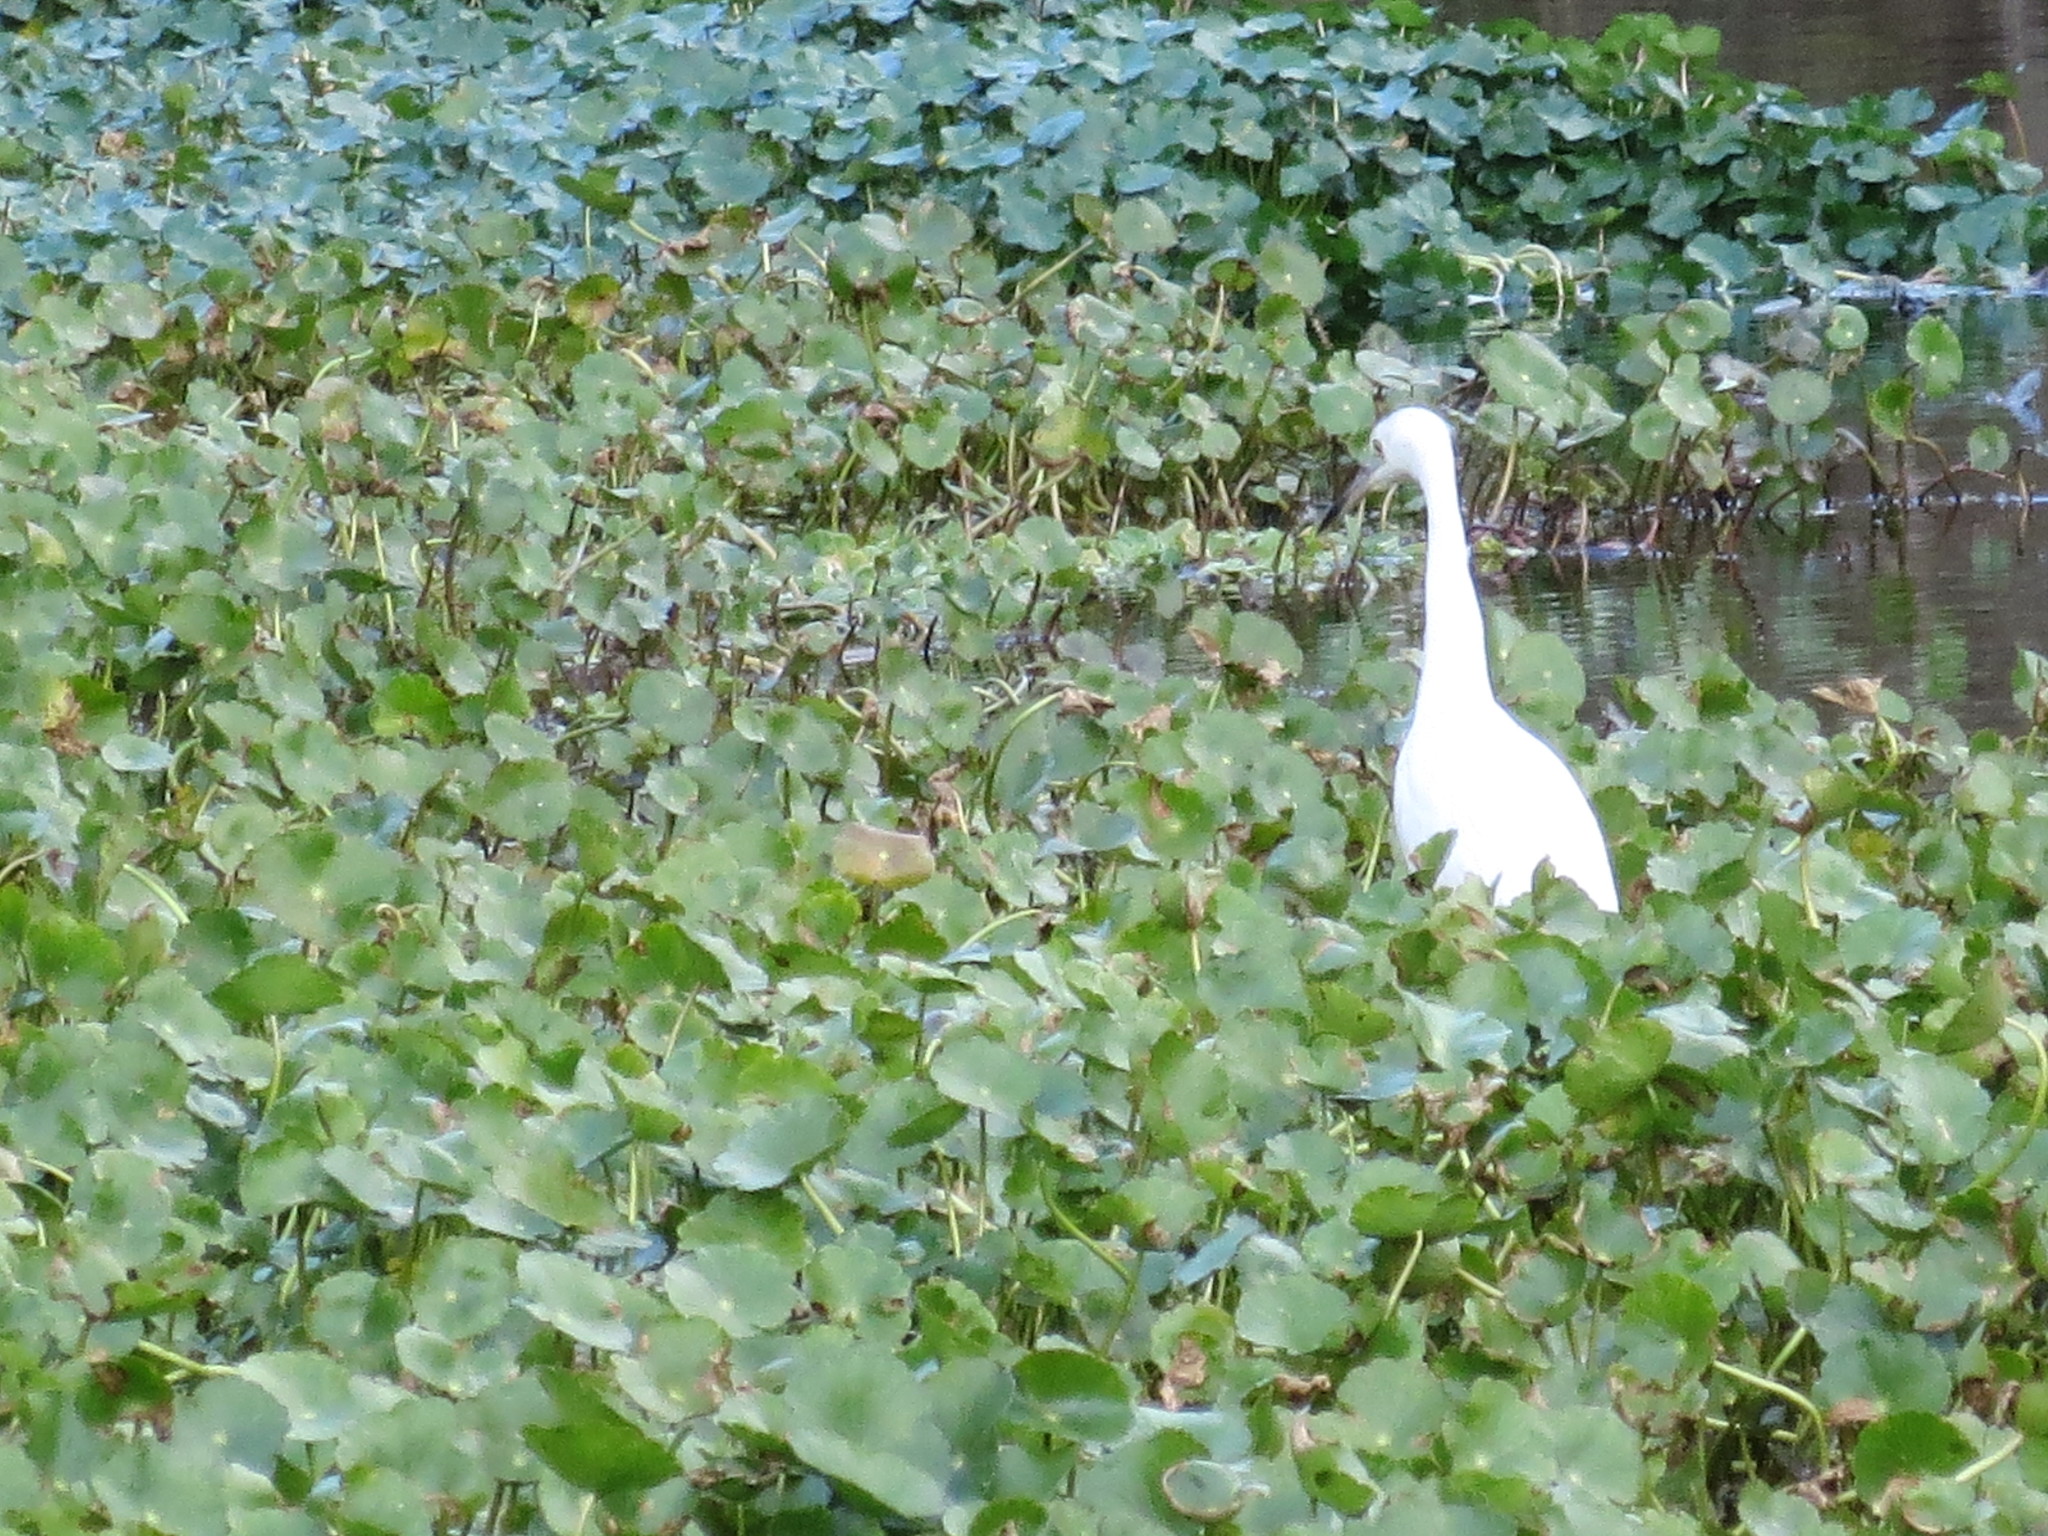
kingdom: Animalia
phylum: Chordata
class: Aves
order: Pelecaniformes
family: Ardeidae
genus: Egretta
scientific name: Egretta caerulea
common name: Little blue heron
